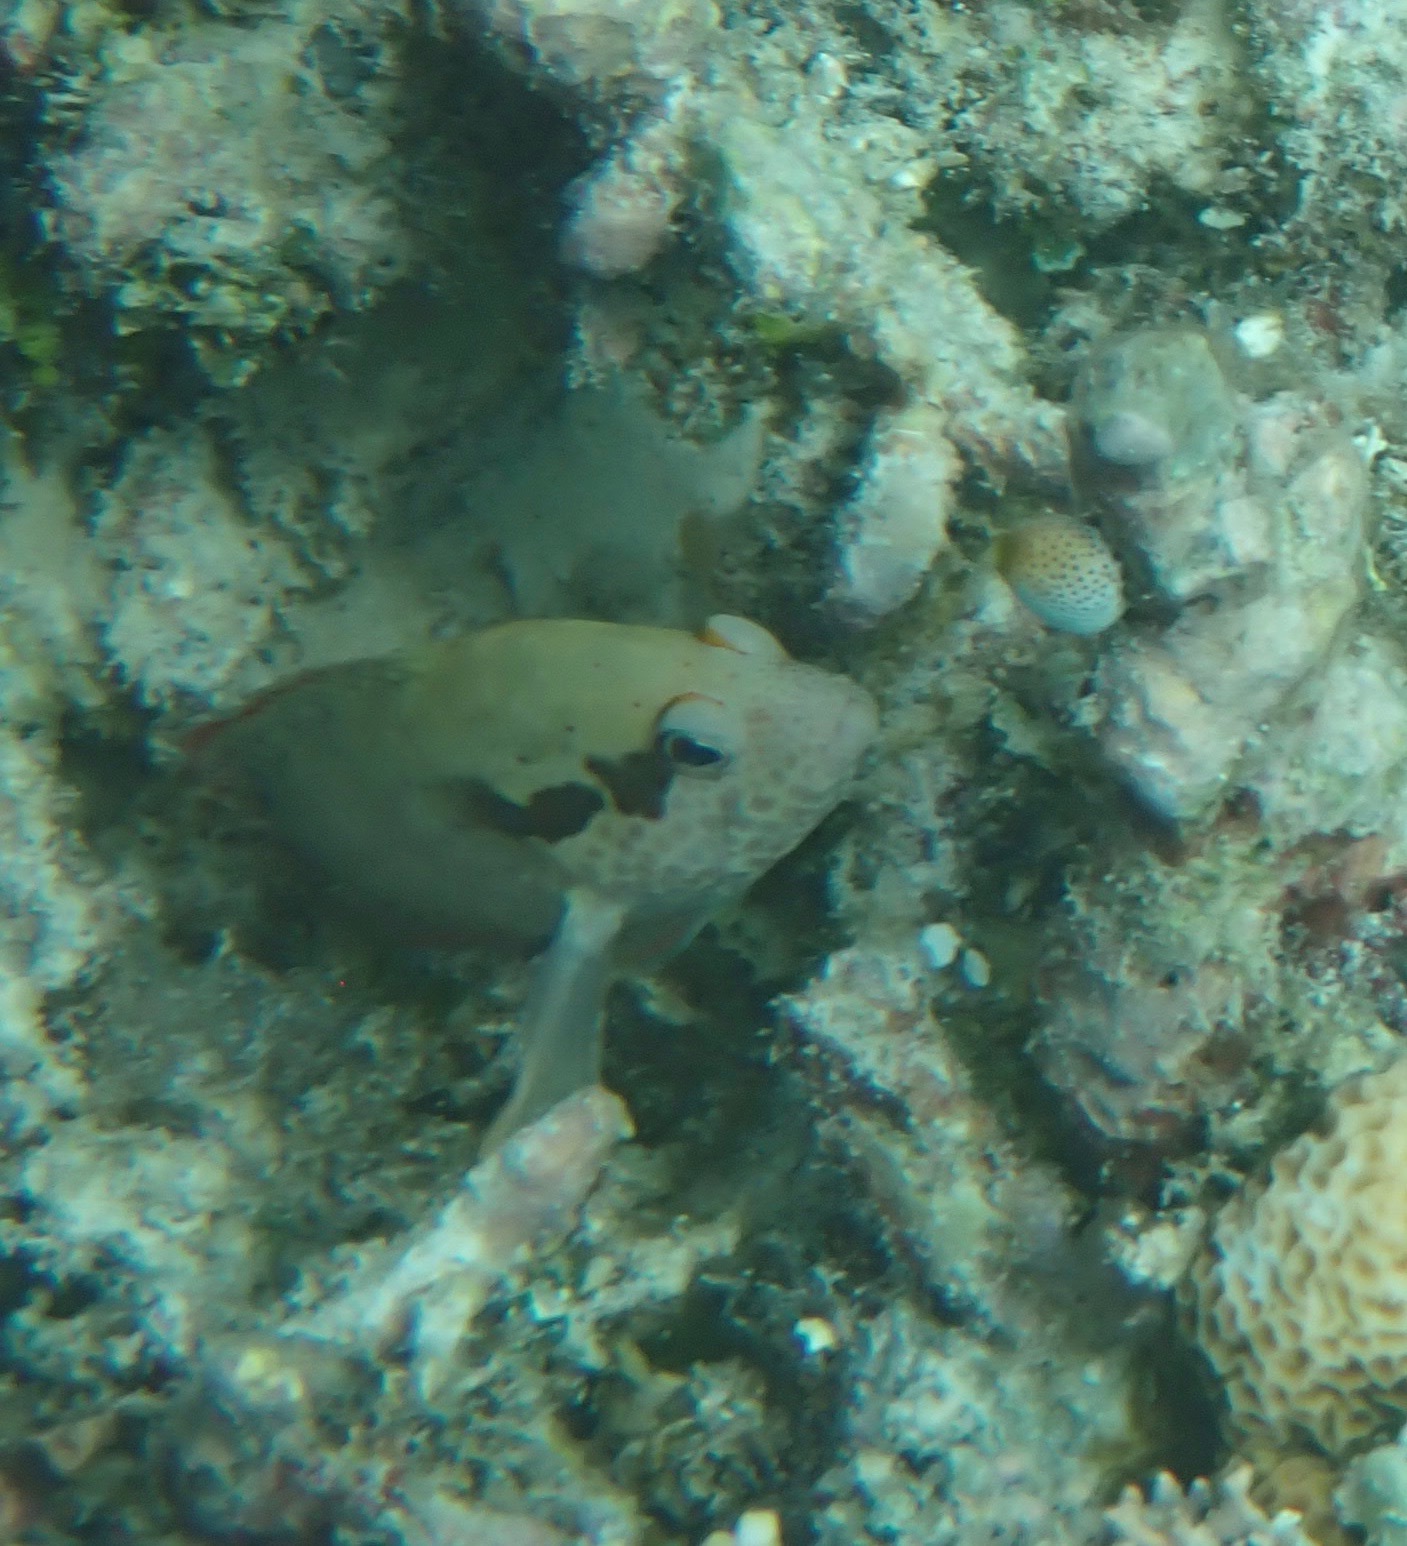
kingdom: Animalia
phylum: Chordata
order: Tetraodontiformes
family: Tetraodontidae
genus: Canthigaster
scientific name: Canthigaster bennetti
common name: Bennett's pufferfish
